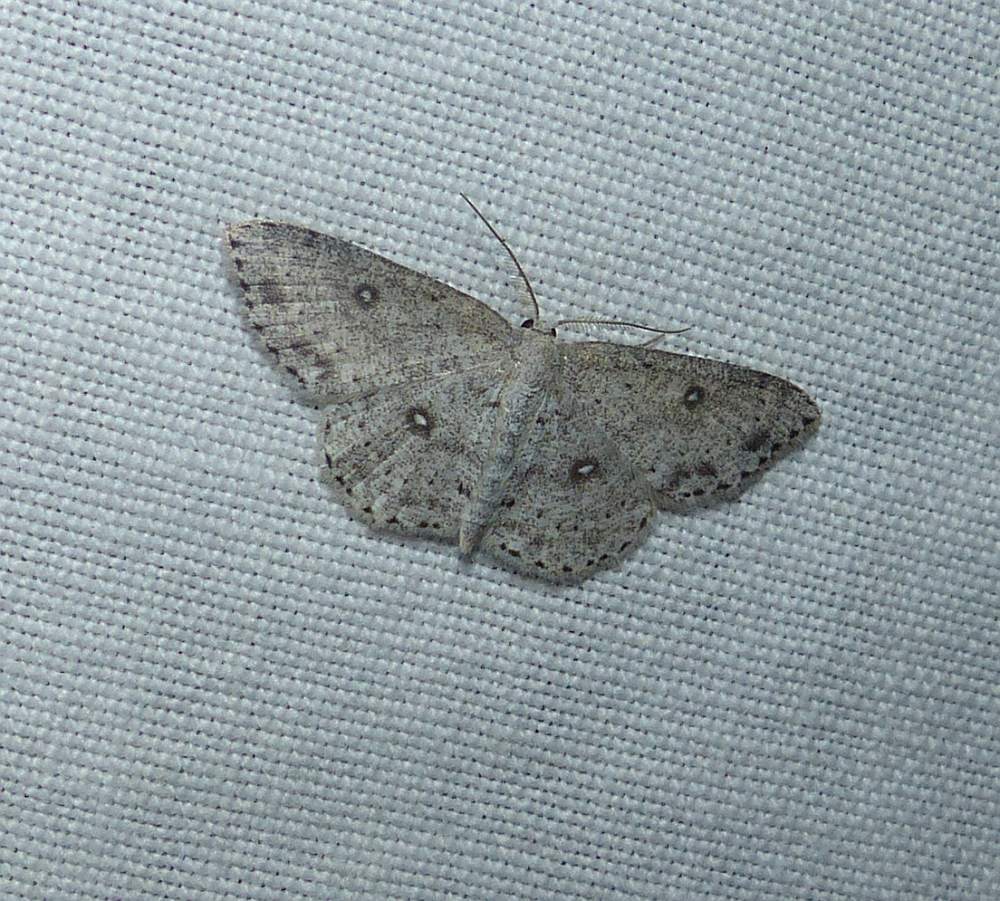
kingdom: Animalia
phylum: Arthropoda
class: Insecta
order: Lepidoptera
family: Geometridae
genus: Cyclophora
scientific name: Cyclophora pendulinaria
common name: Sweet fern geometer
